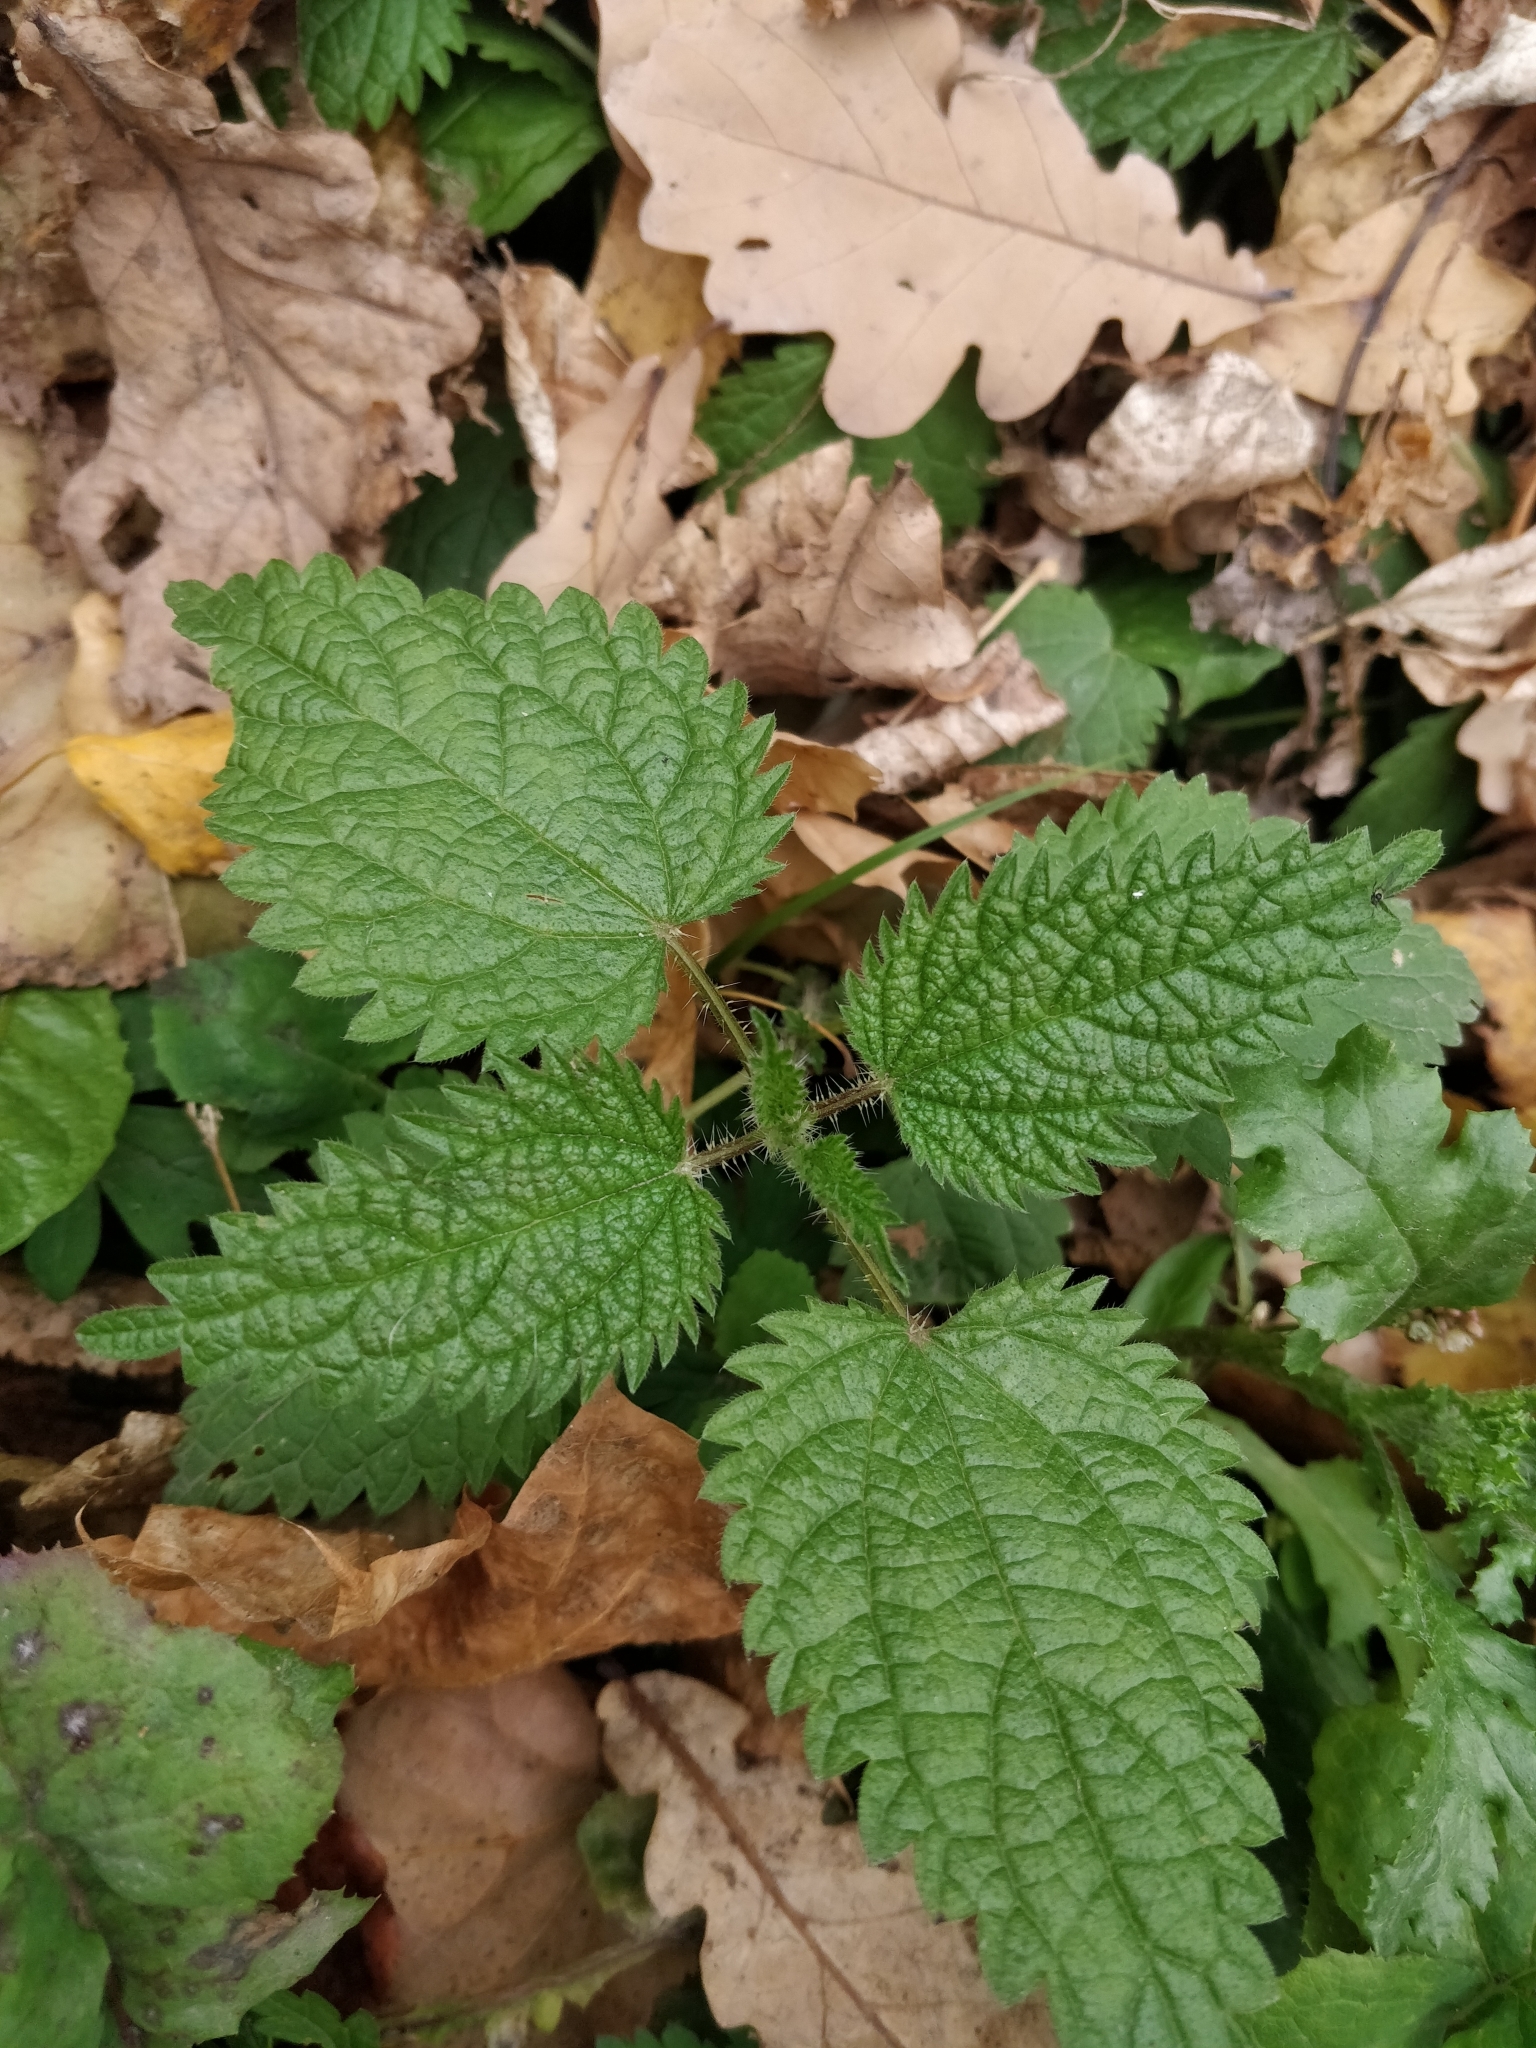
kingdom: Plantae
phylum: Tracheophyta
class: Magnoliopsida
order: Rosales
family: Urticaceae
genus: Urtica
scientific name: Urtica dioica
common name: Common nettle
